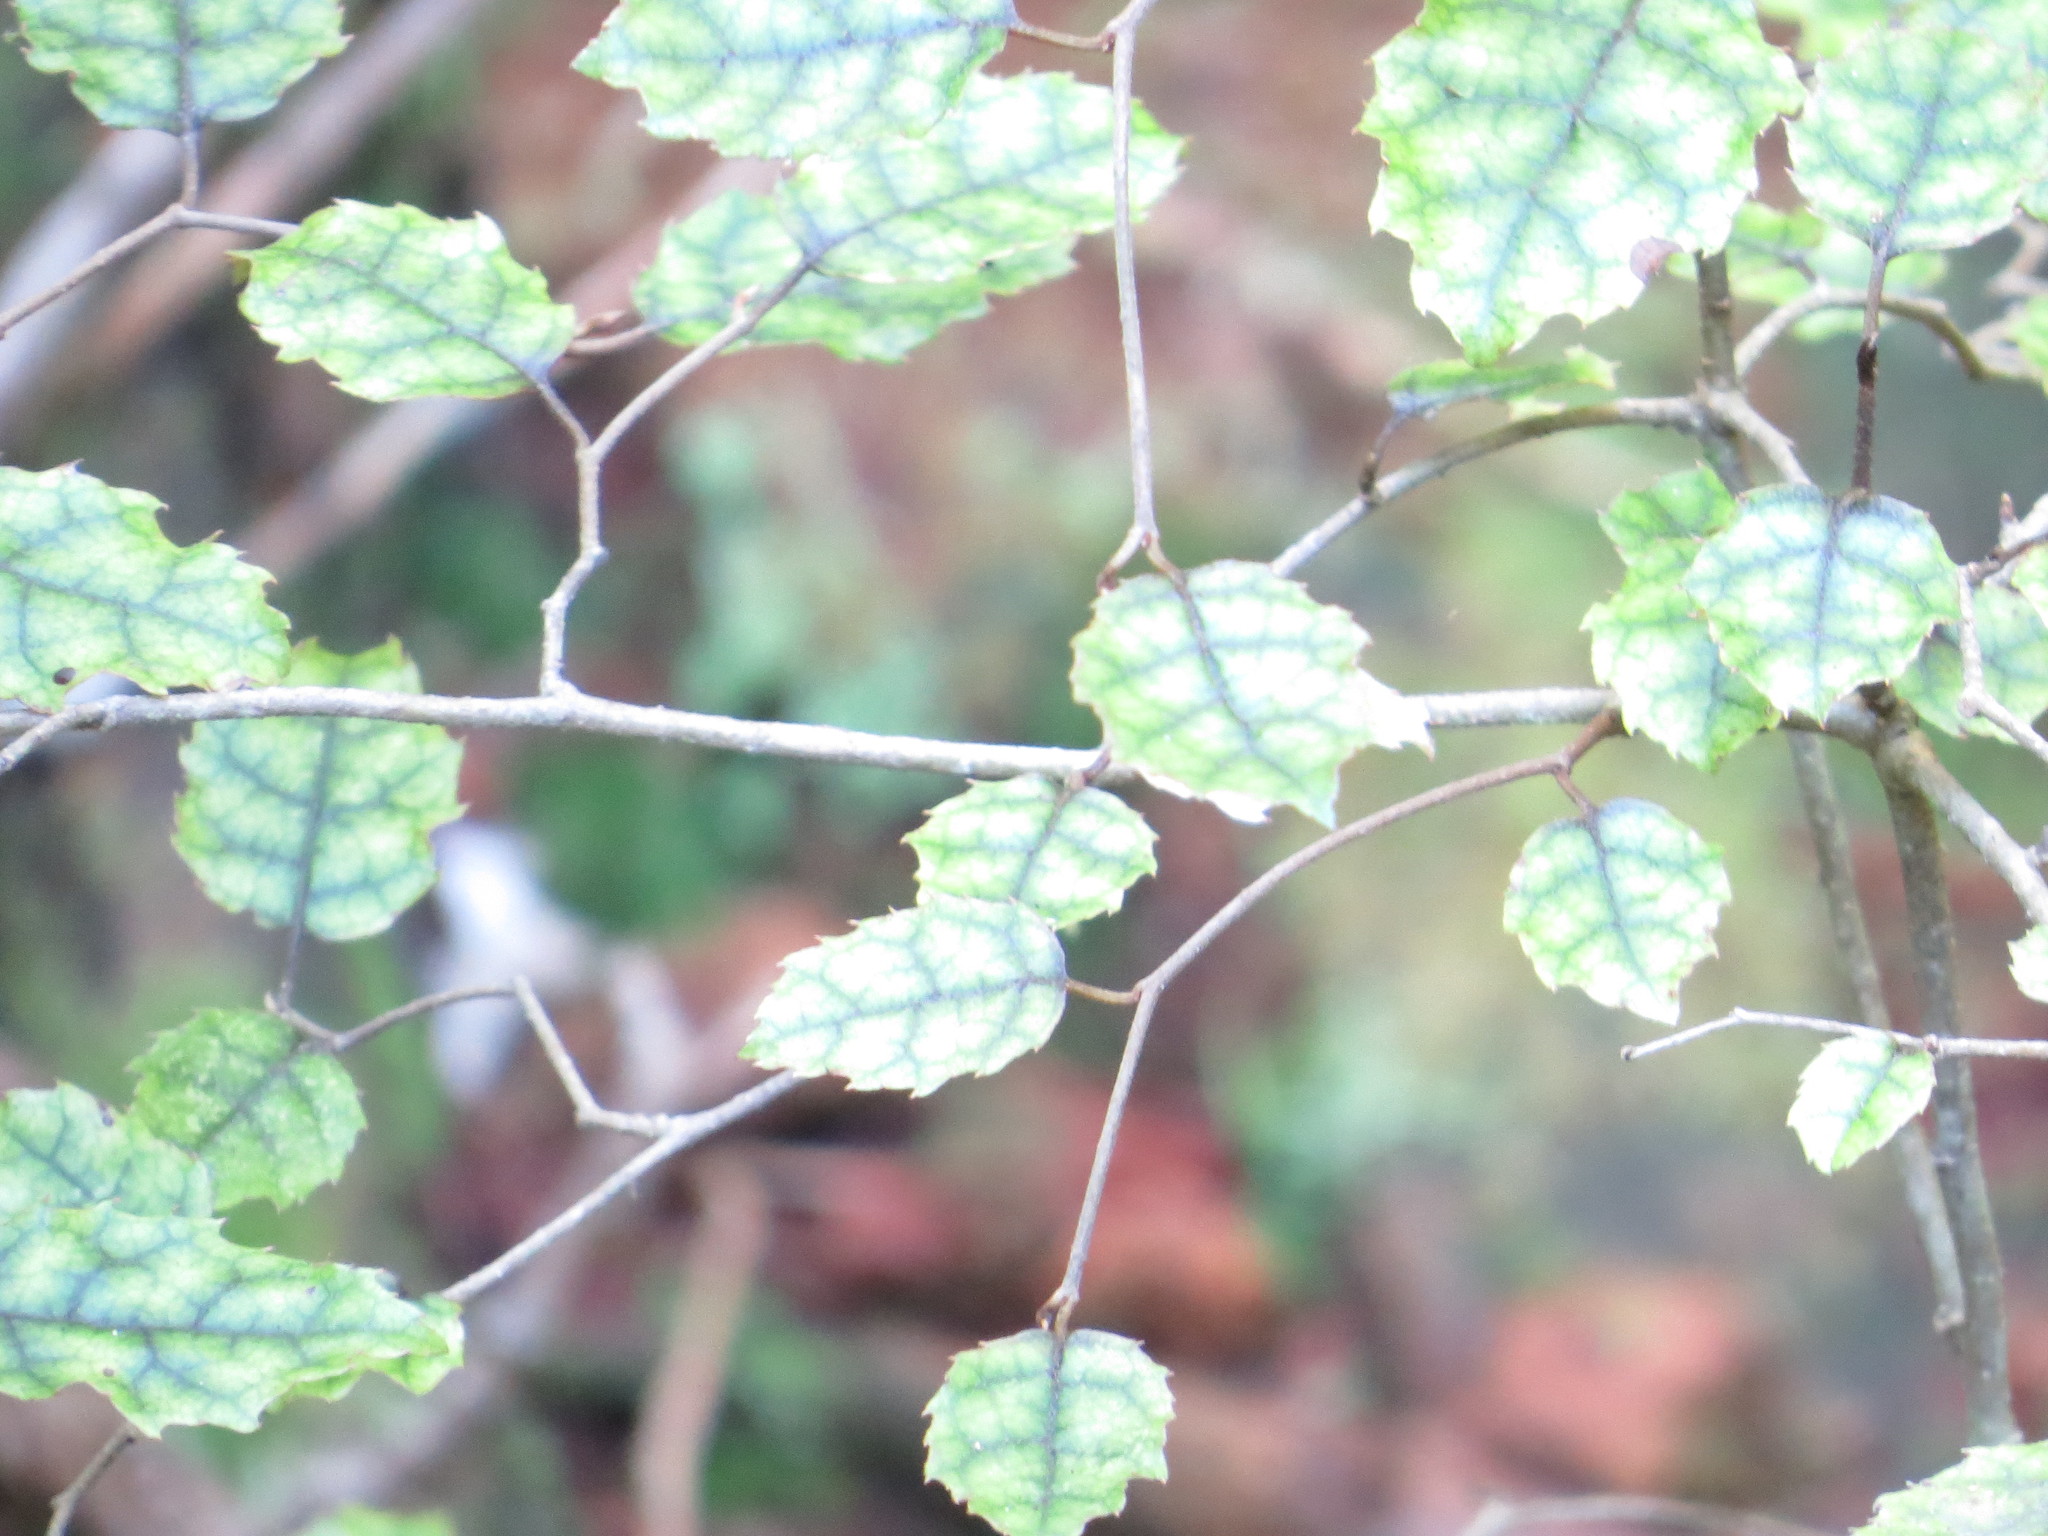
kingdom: Plantae
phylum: Tracheophyta
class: Magnoliopsida
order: Asterales
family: Rousseaceae
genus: Carpodetus
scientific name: Carpodetus serratus
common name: White mapau
